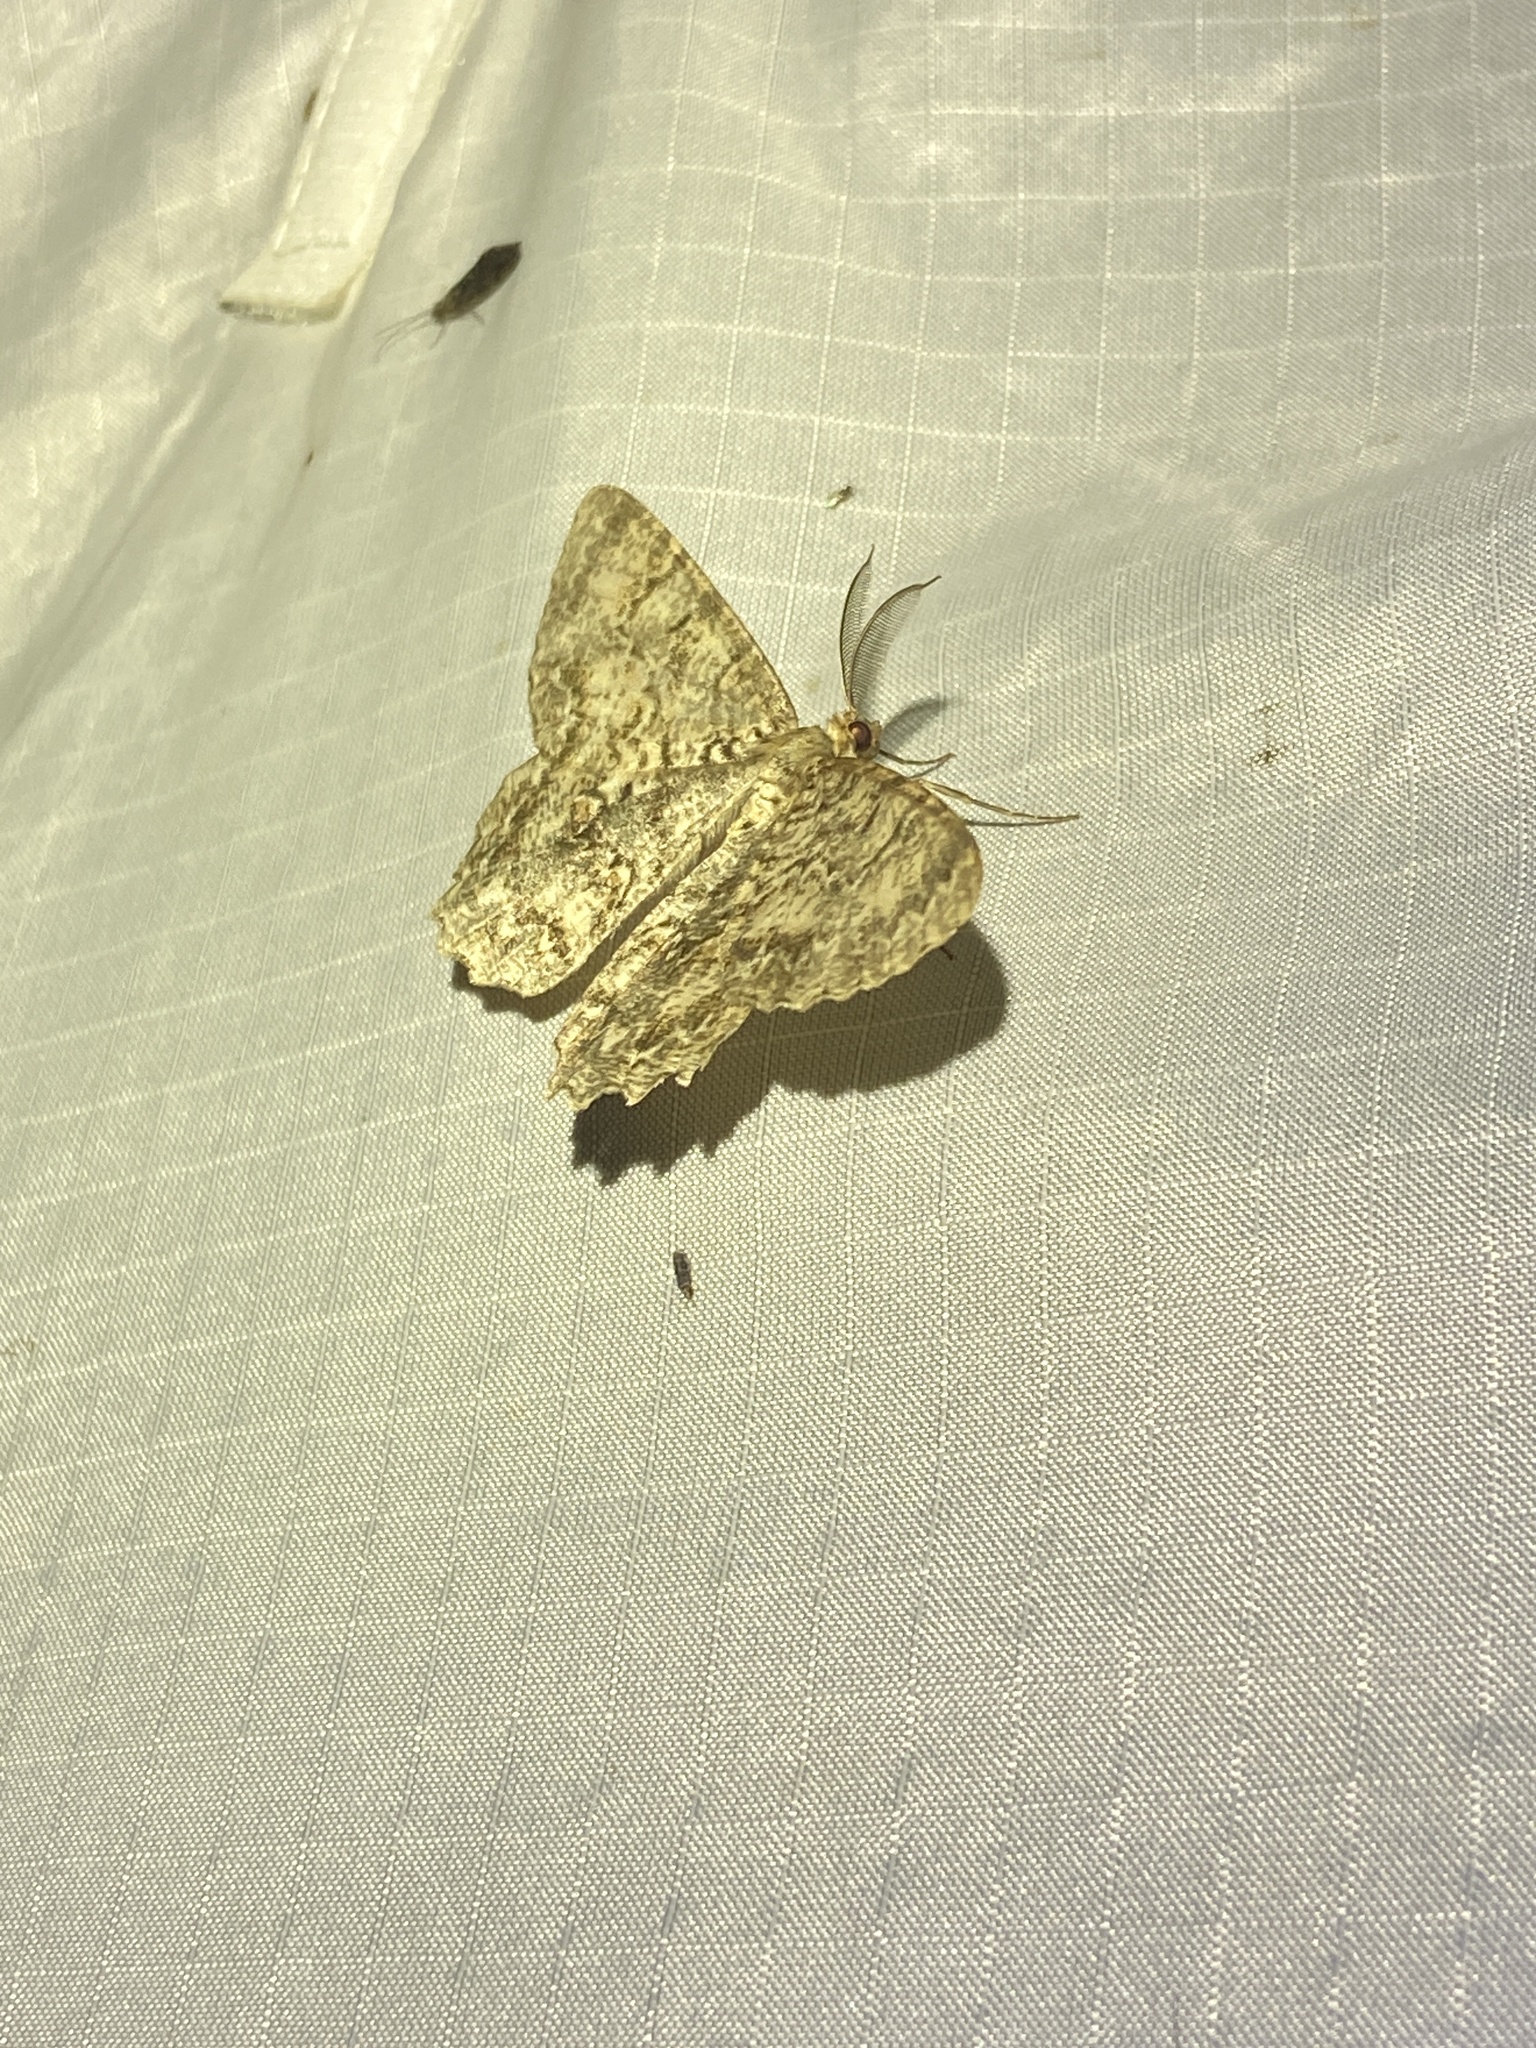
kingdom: Animalia
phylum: Arthropoda
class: Insecta
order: Lepidoptera
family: Geometridae
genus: Epimecis
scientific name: Epimecis hortaria
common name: Tulip-tree beauty
